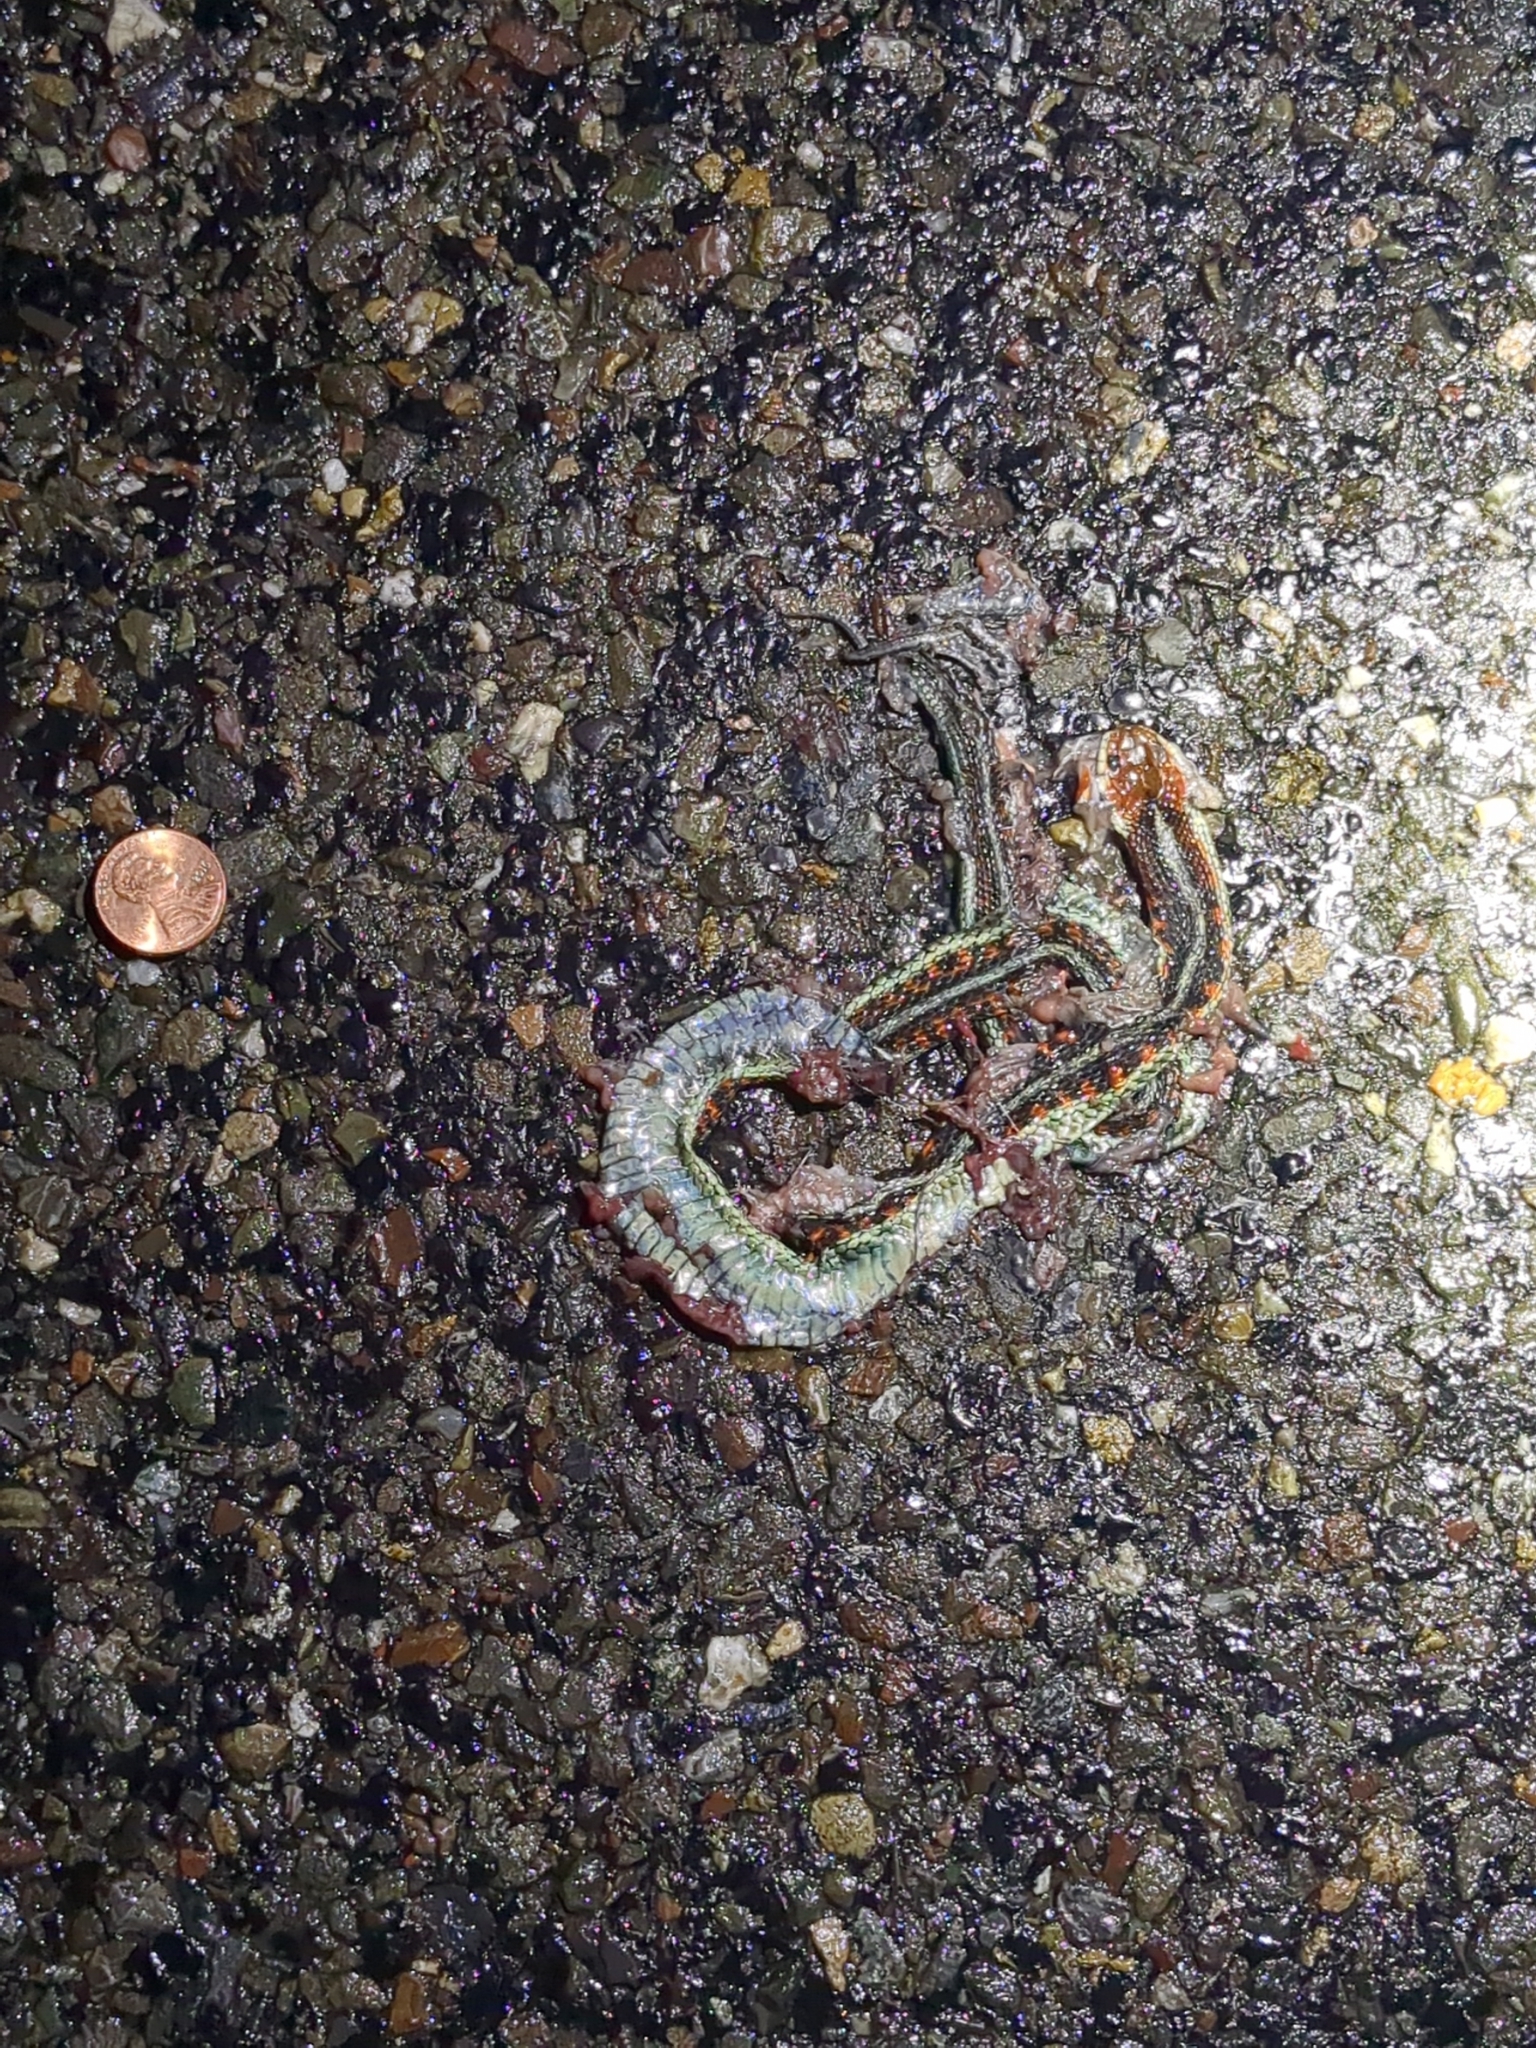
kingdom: Animalia
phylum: Chordata
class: Squamata
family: Colubridae
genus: Thamnophis
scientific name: Thamnophis sirtalis
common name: Common garter snake
